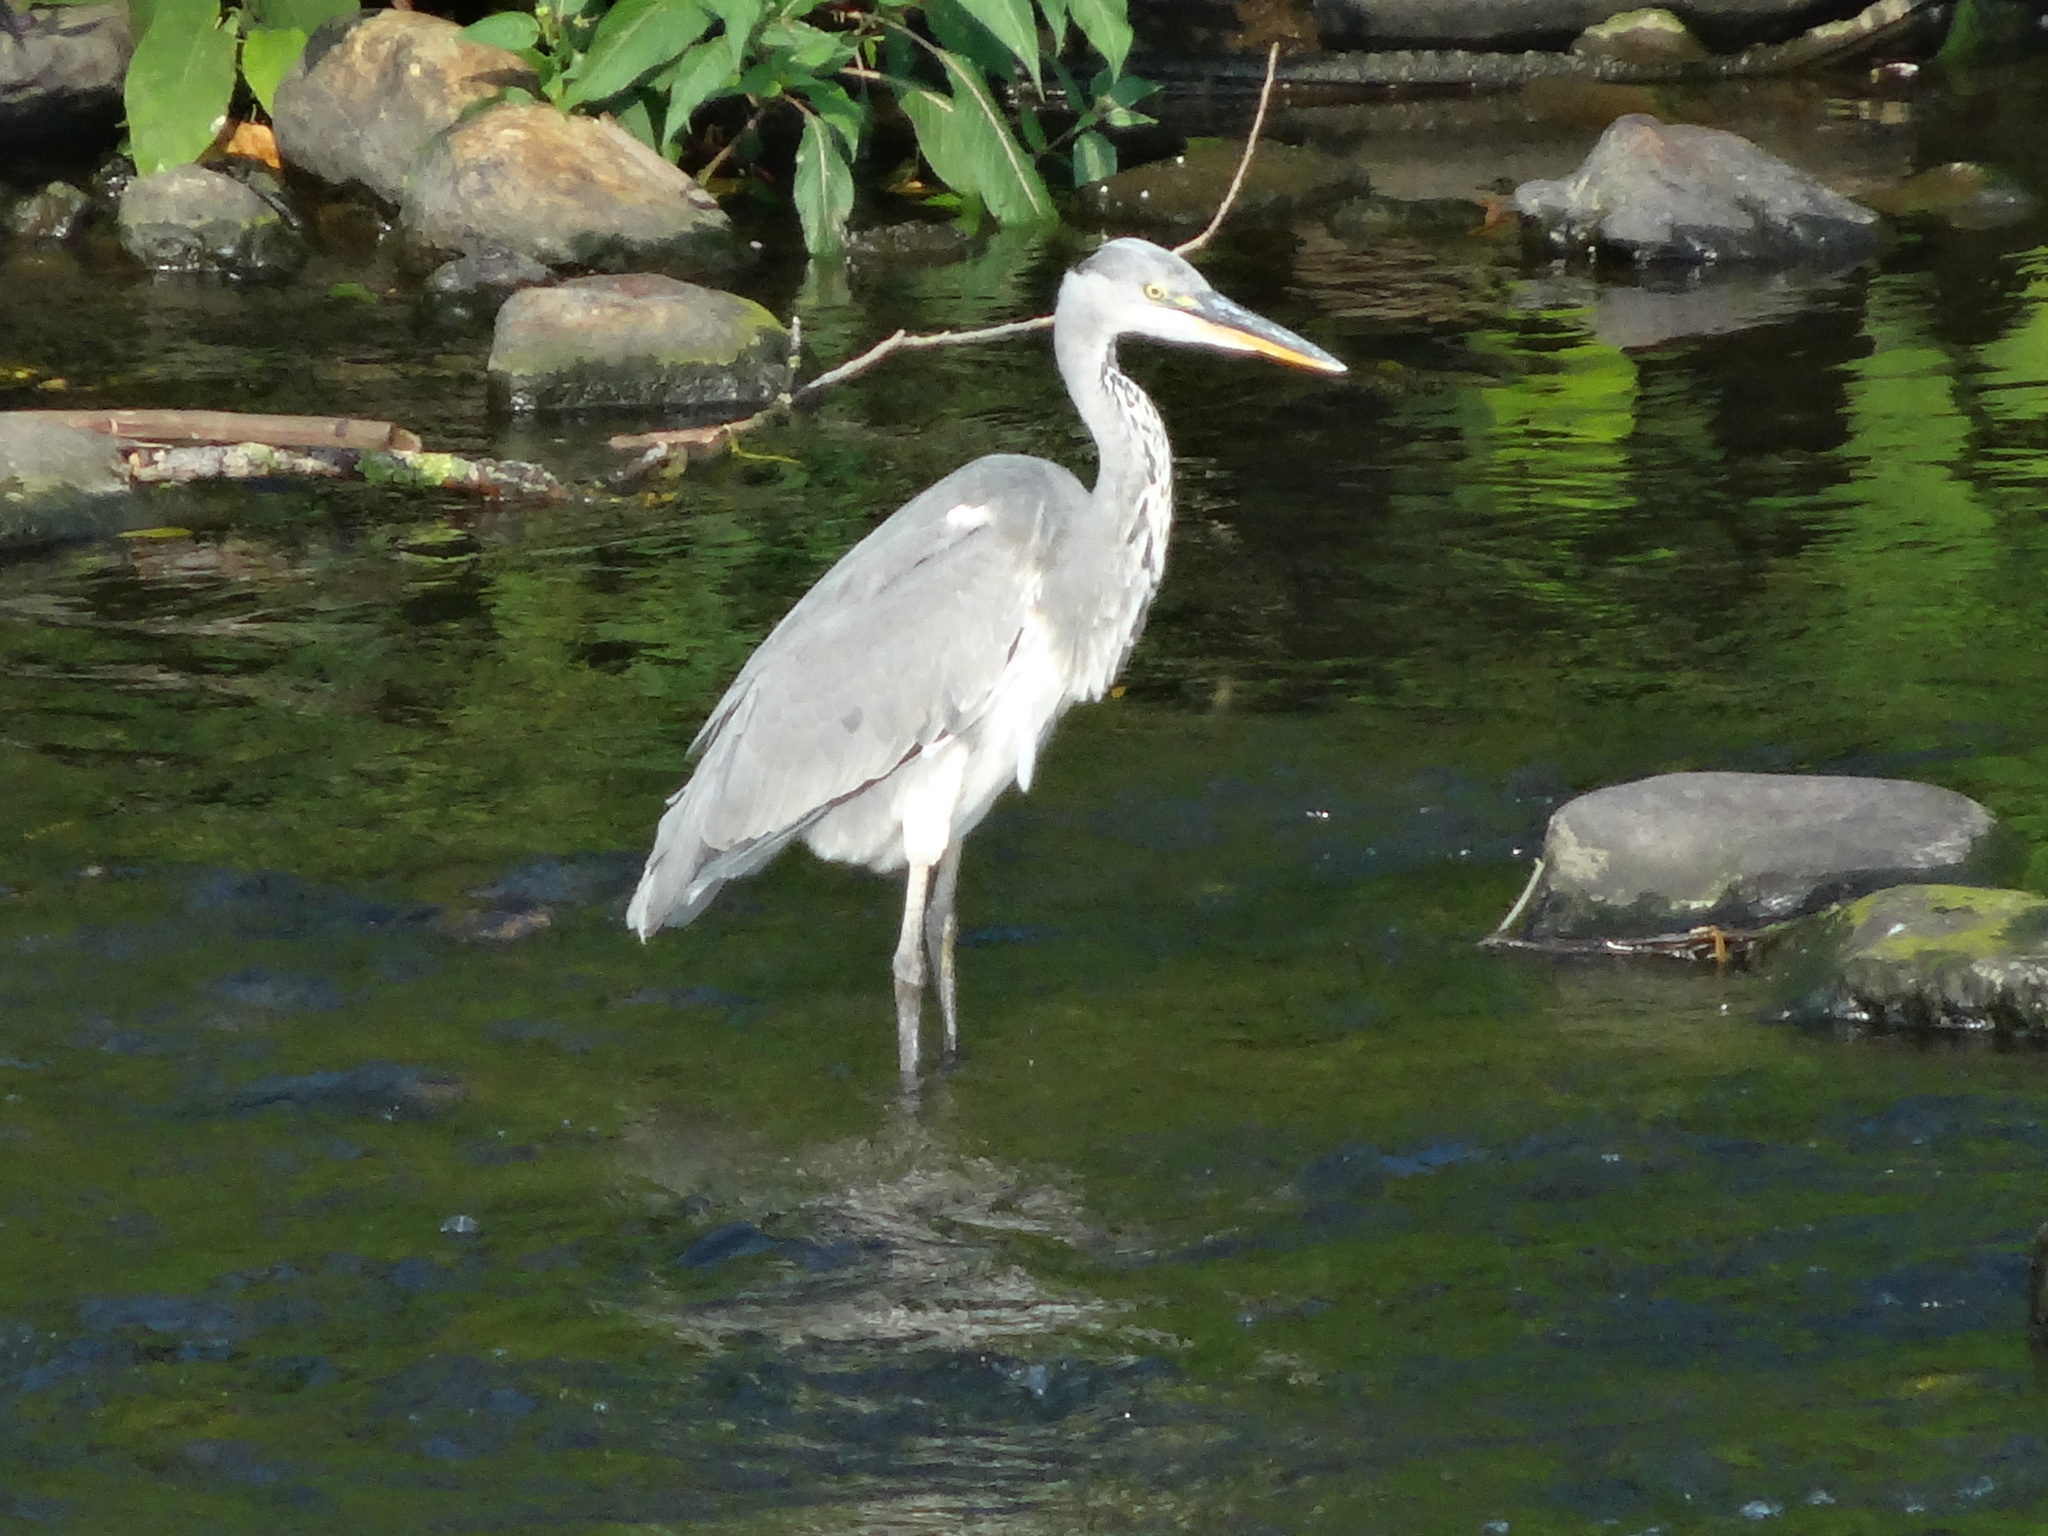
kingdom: Animalia
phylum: Chordata
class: Aves
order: Pelecaniformes
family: Ardeidae
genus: Ardea
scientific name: Ardea cinerea
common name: Grey heron
